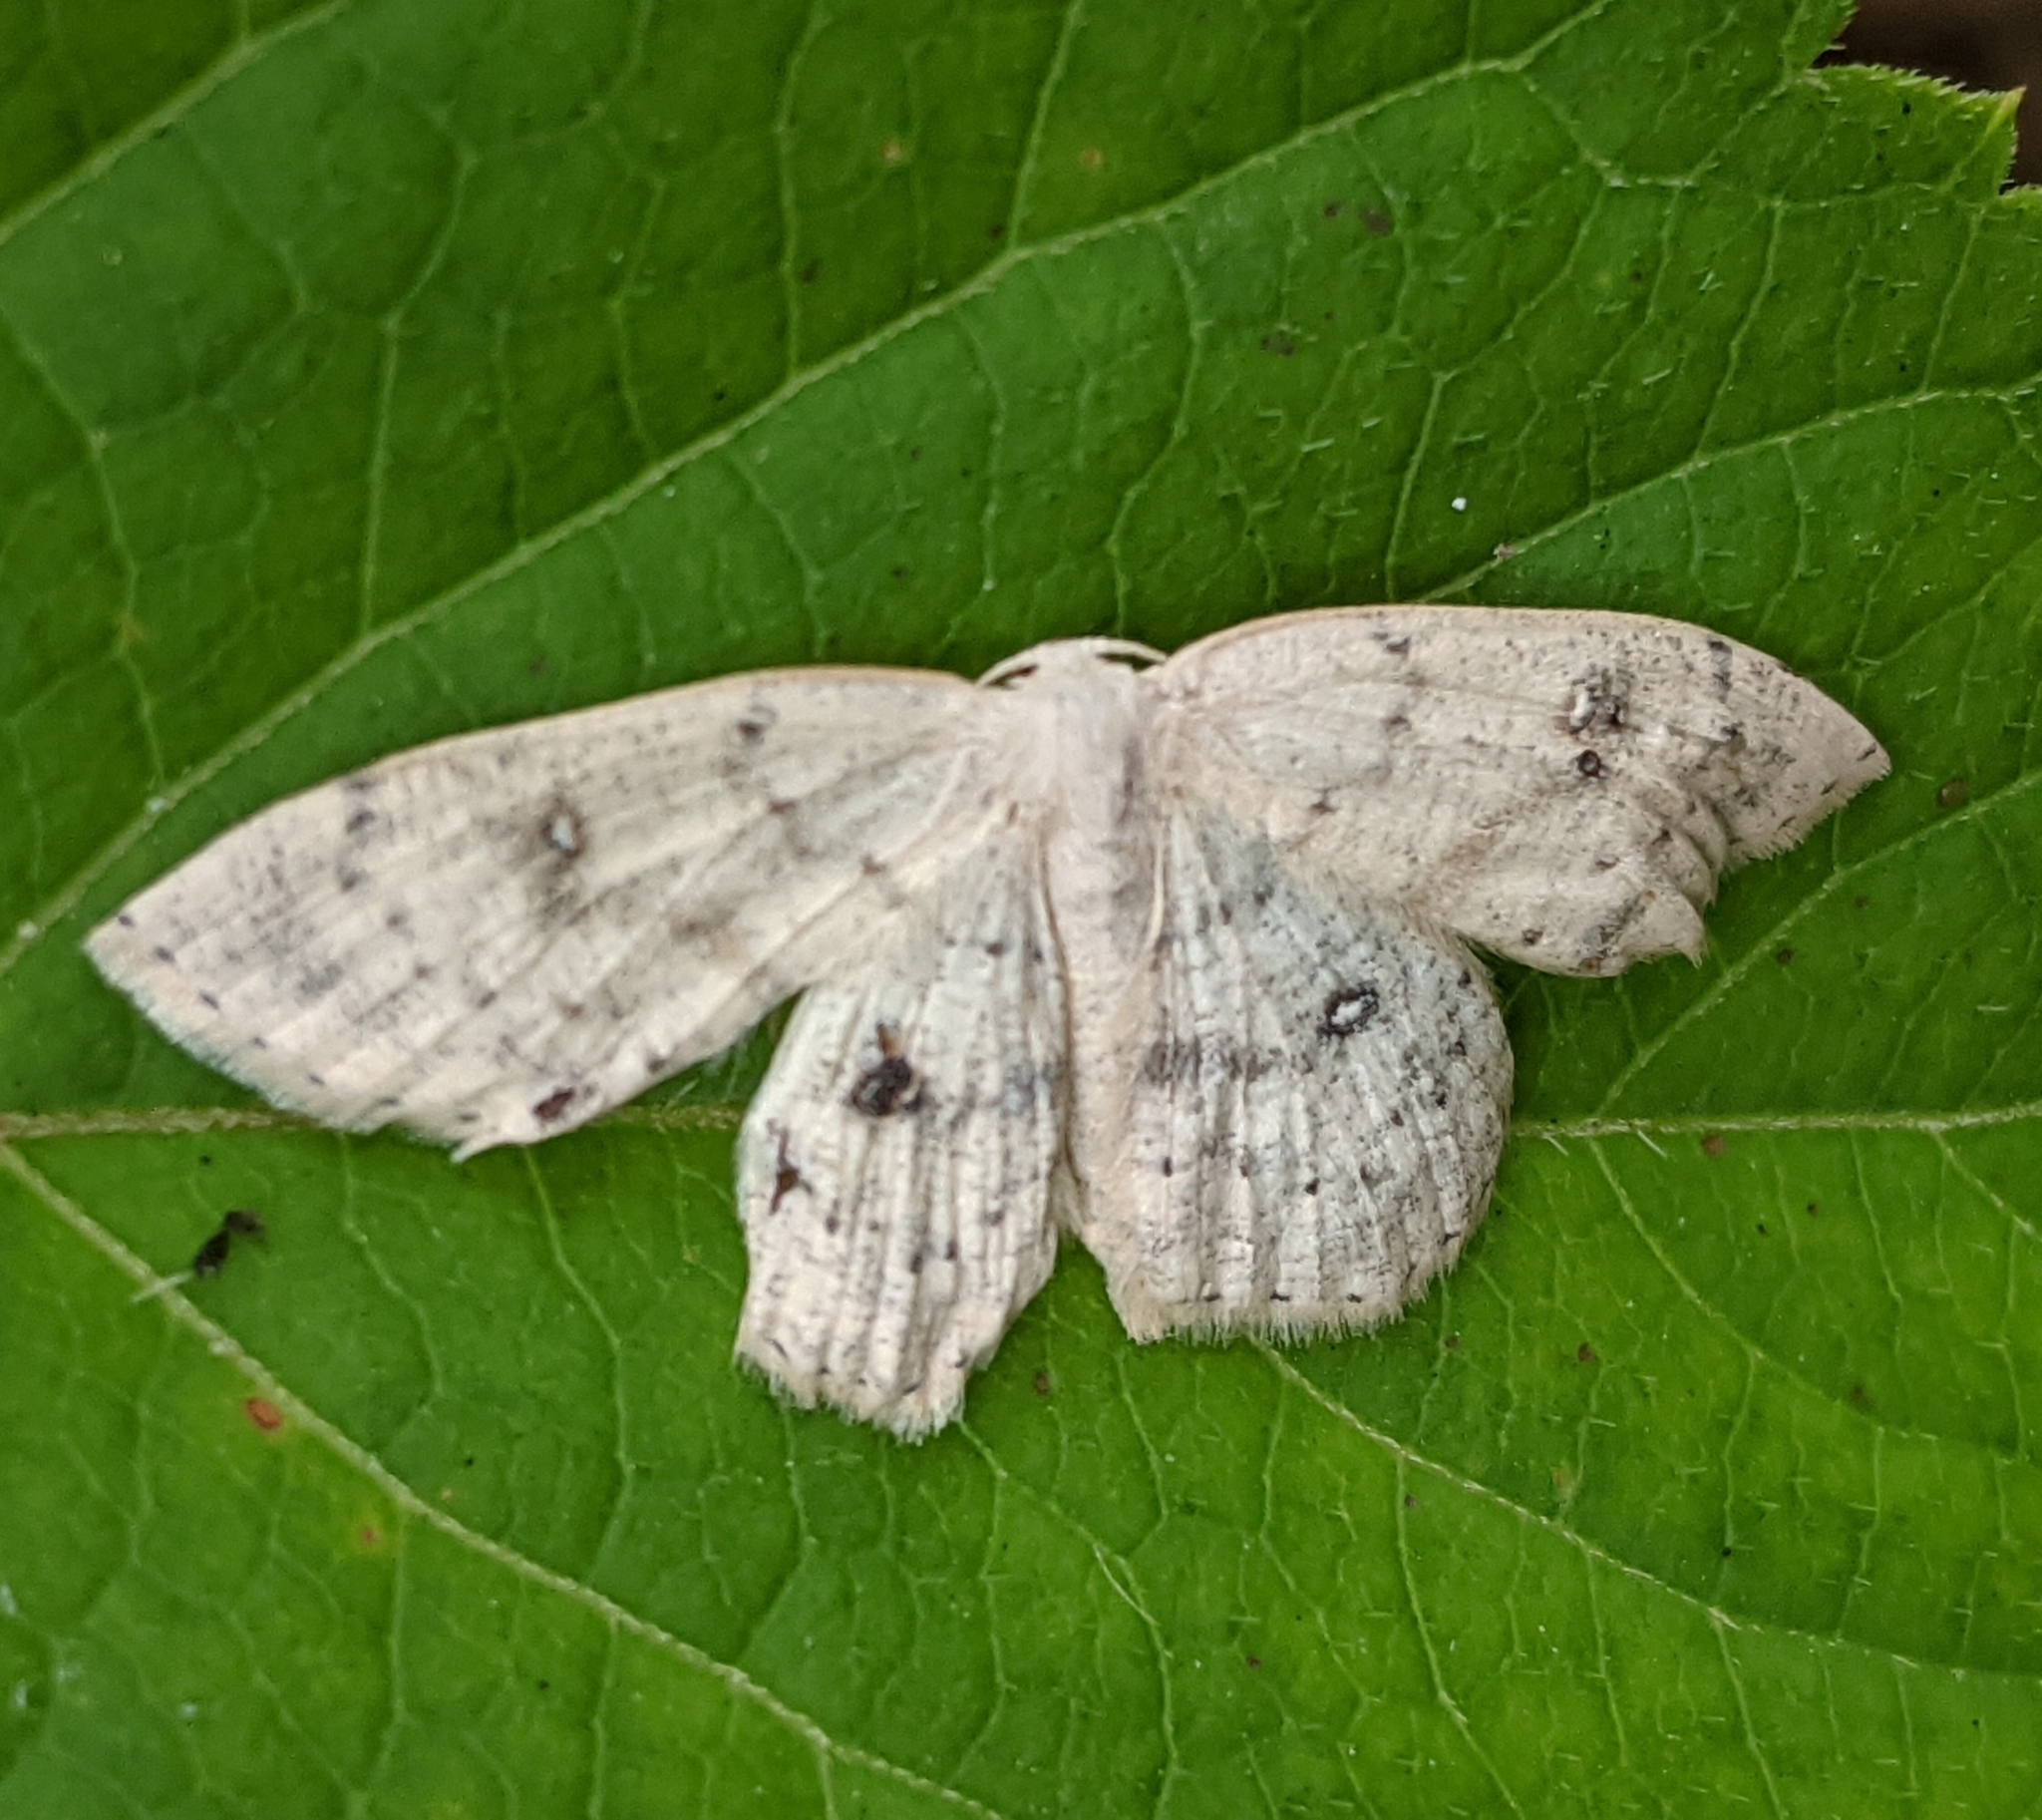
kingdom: Animalia
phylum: Arthropoda
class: Insecta
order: Lepidoptera
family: Geometridae
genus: Cyclophora
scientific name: Cyclophora albipunctata
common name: Birch mocha
